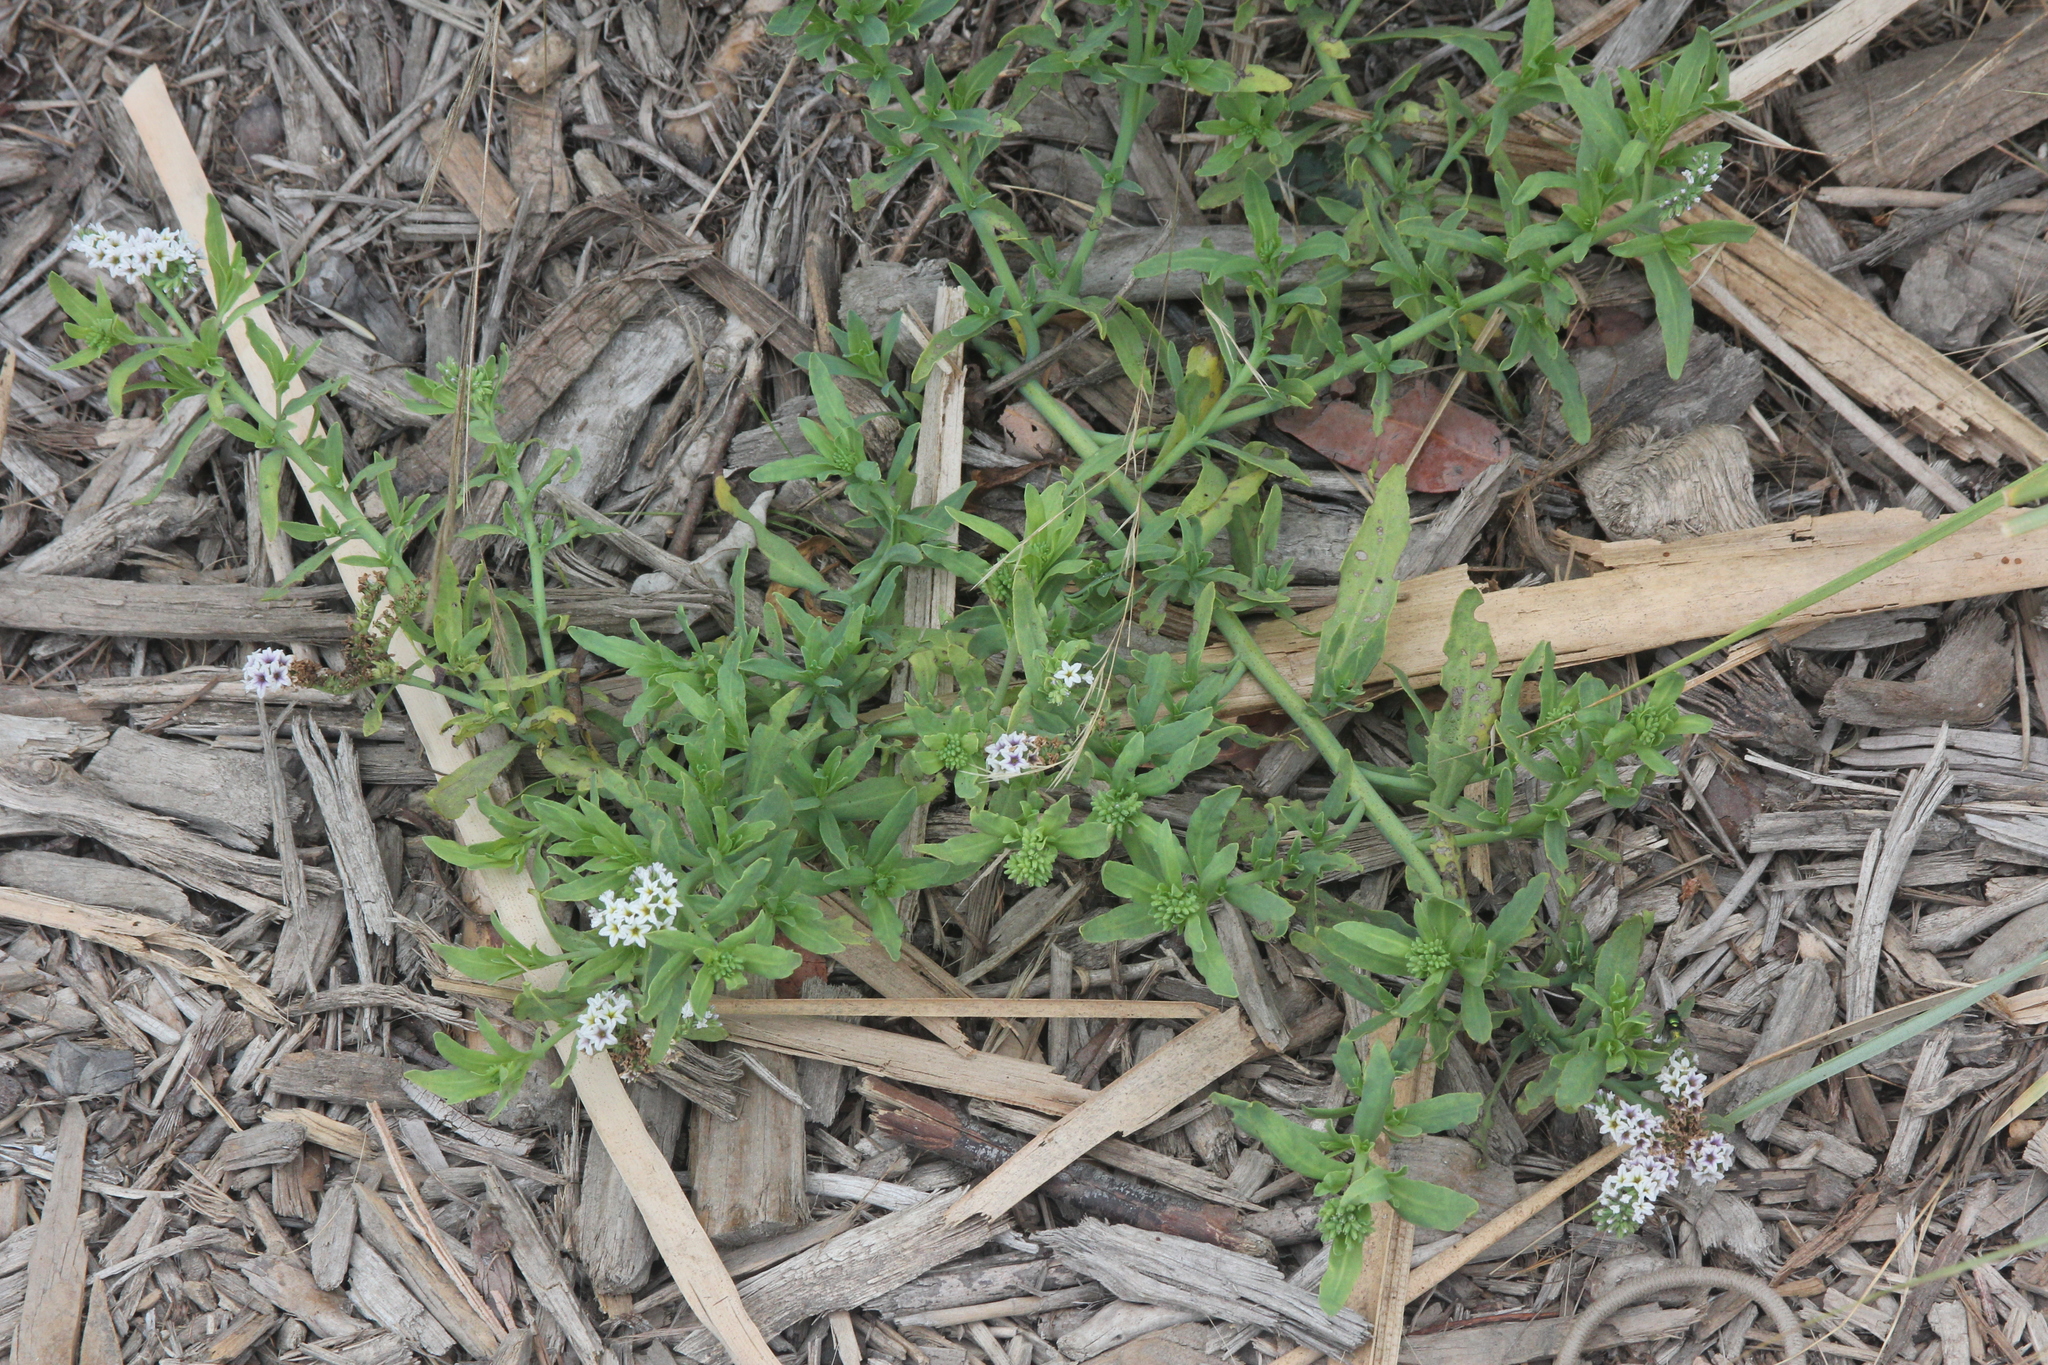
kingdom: Plantae
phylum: Tracheophyta
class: Magnoliopsida
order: Boraginales
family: Heliotropiaceae
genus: Heliotropium
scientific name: Heliotropium curassavicum
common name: Seaside heliotrope
